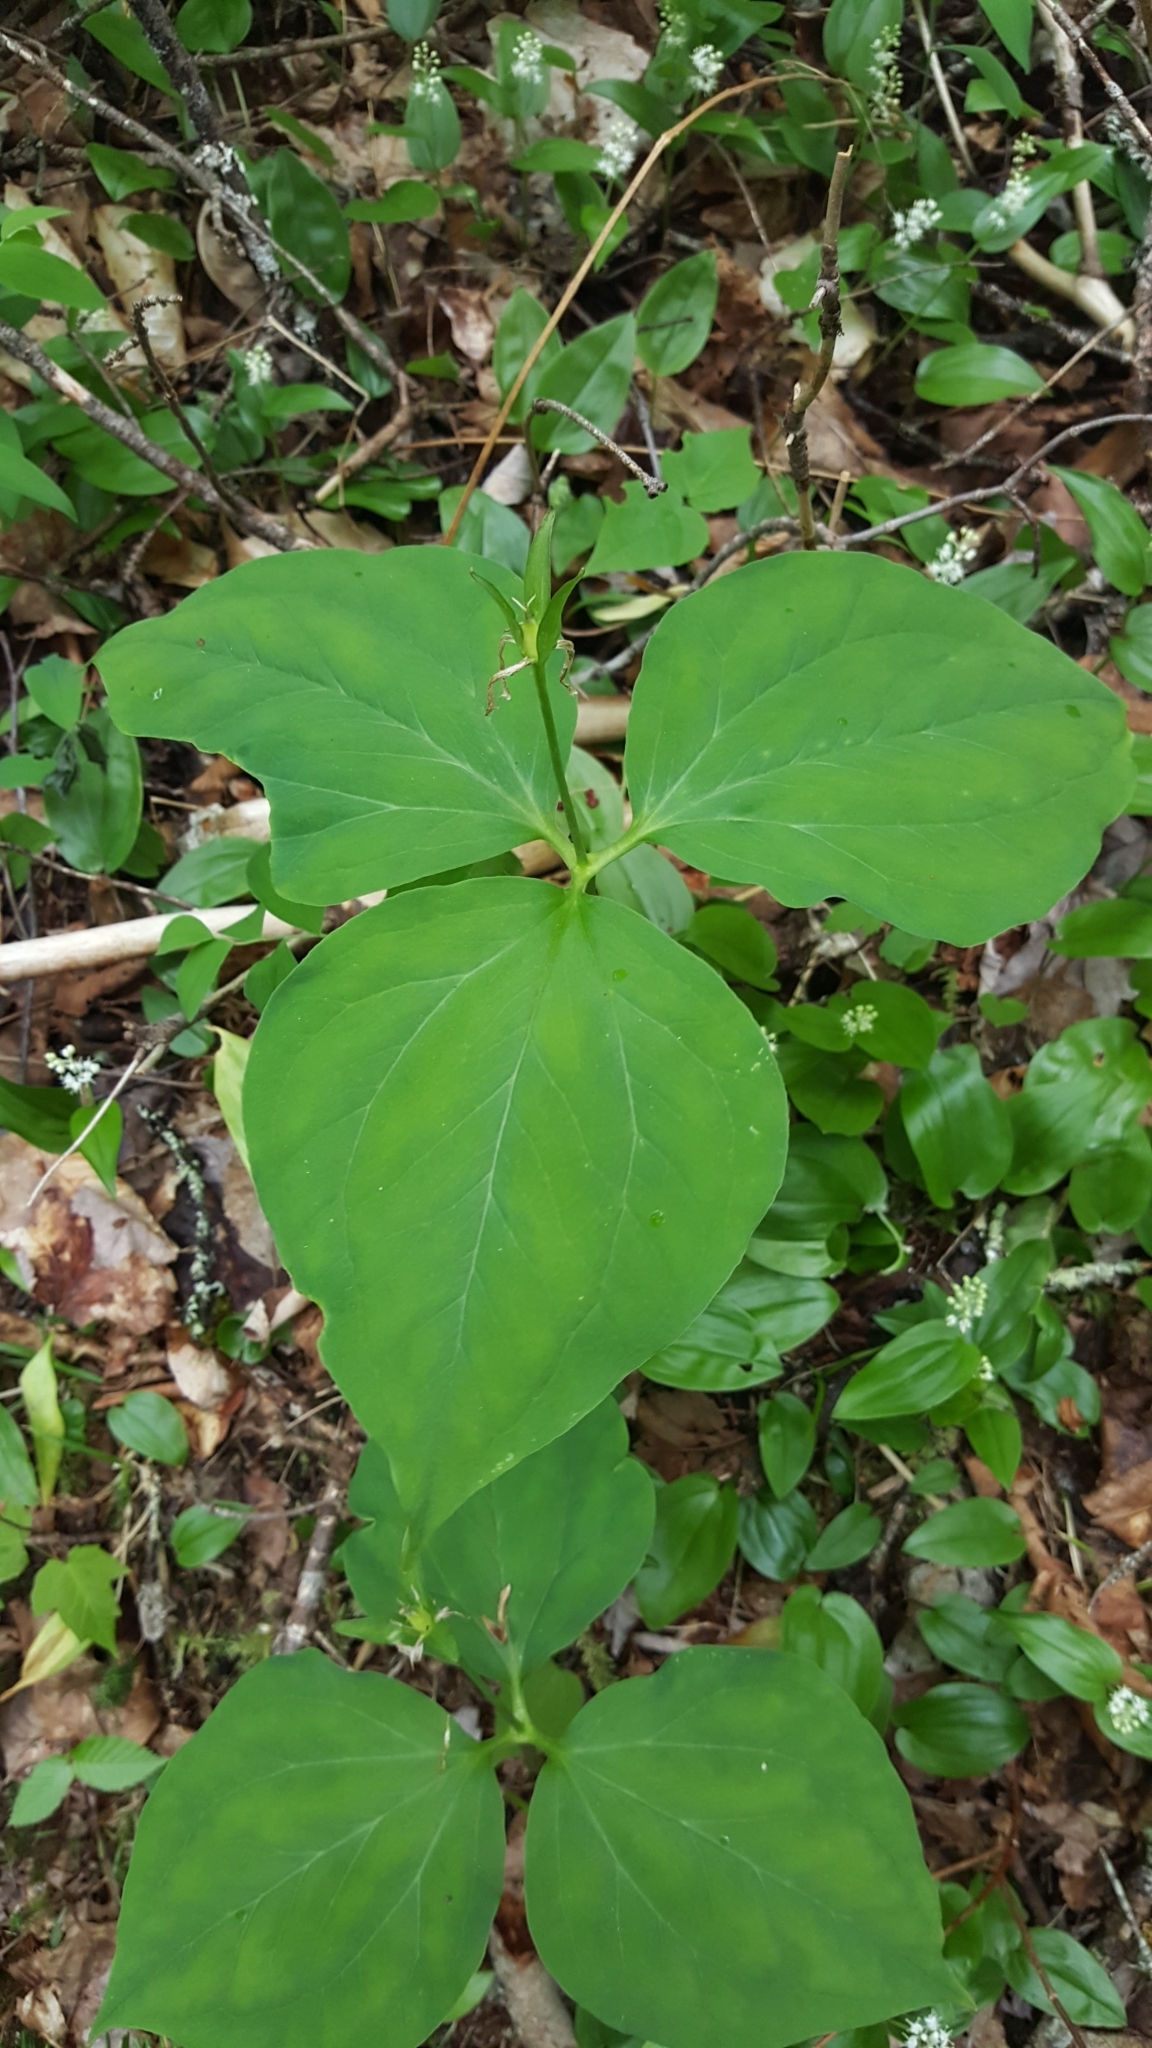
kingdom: Plantae
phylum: Tracheophyta
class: Liliopsida
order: Liliales
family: Melanthiaceae
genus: Trillium
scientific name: Trillium undulatum
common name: Paint trillium
